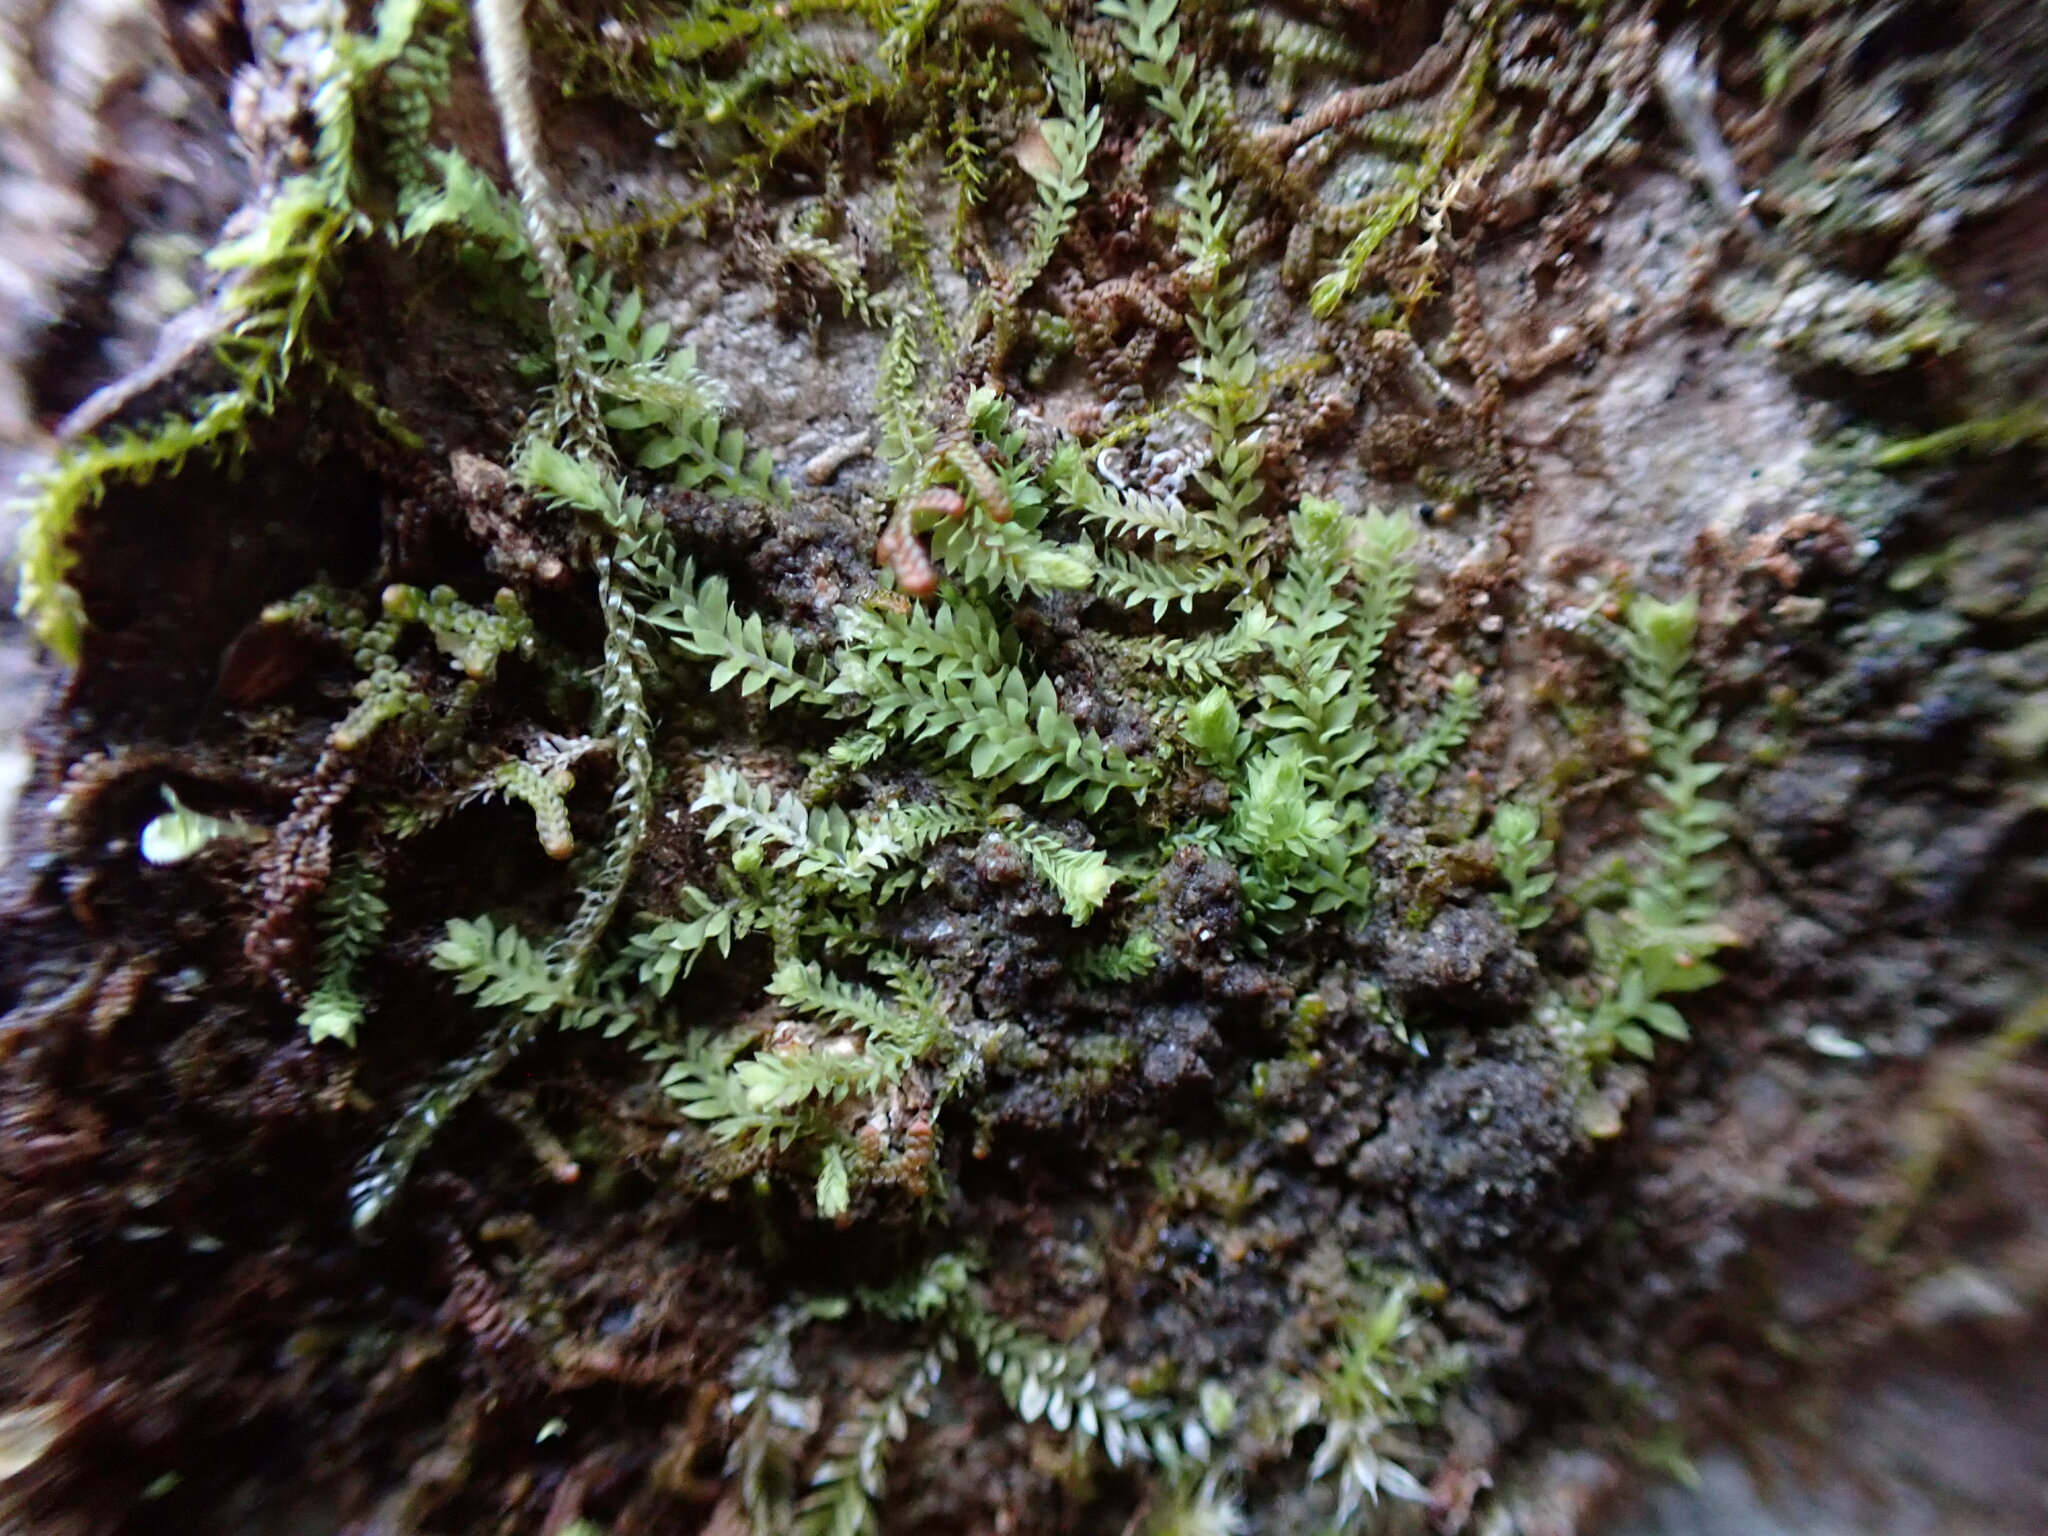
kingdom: Plantae
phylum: Marchantiophyta
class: Jungermanniopsida
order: Jungermanniales
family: Scapaniaceae
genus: Douinia
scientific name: Douinia ovata
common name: Waxy earwort
